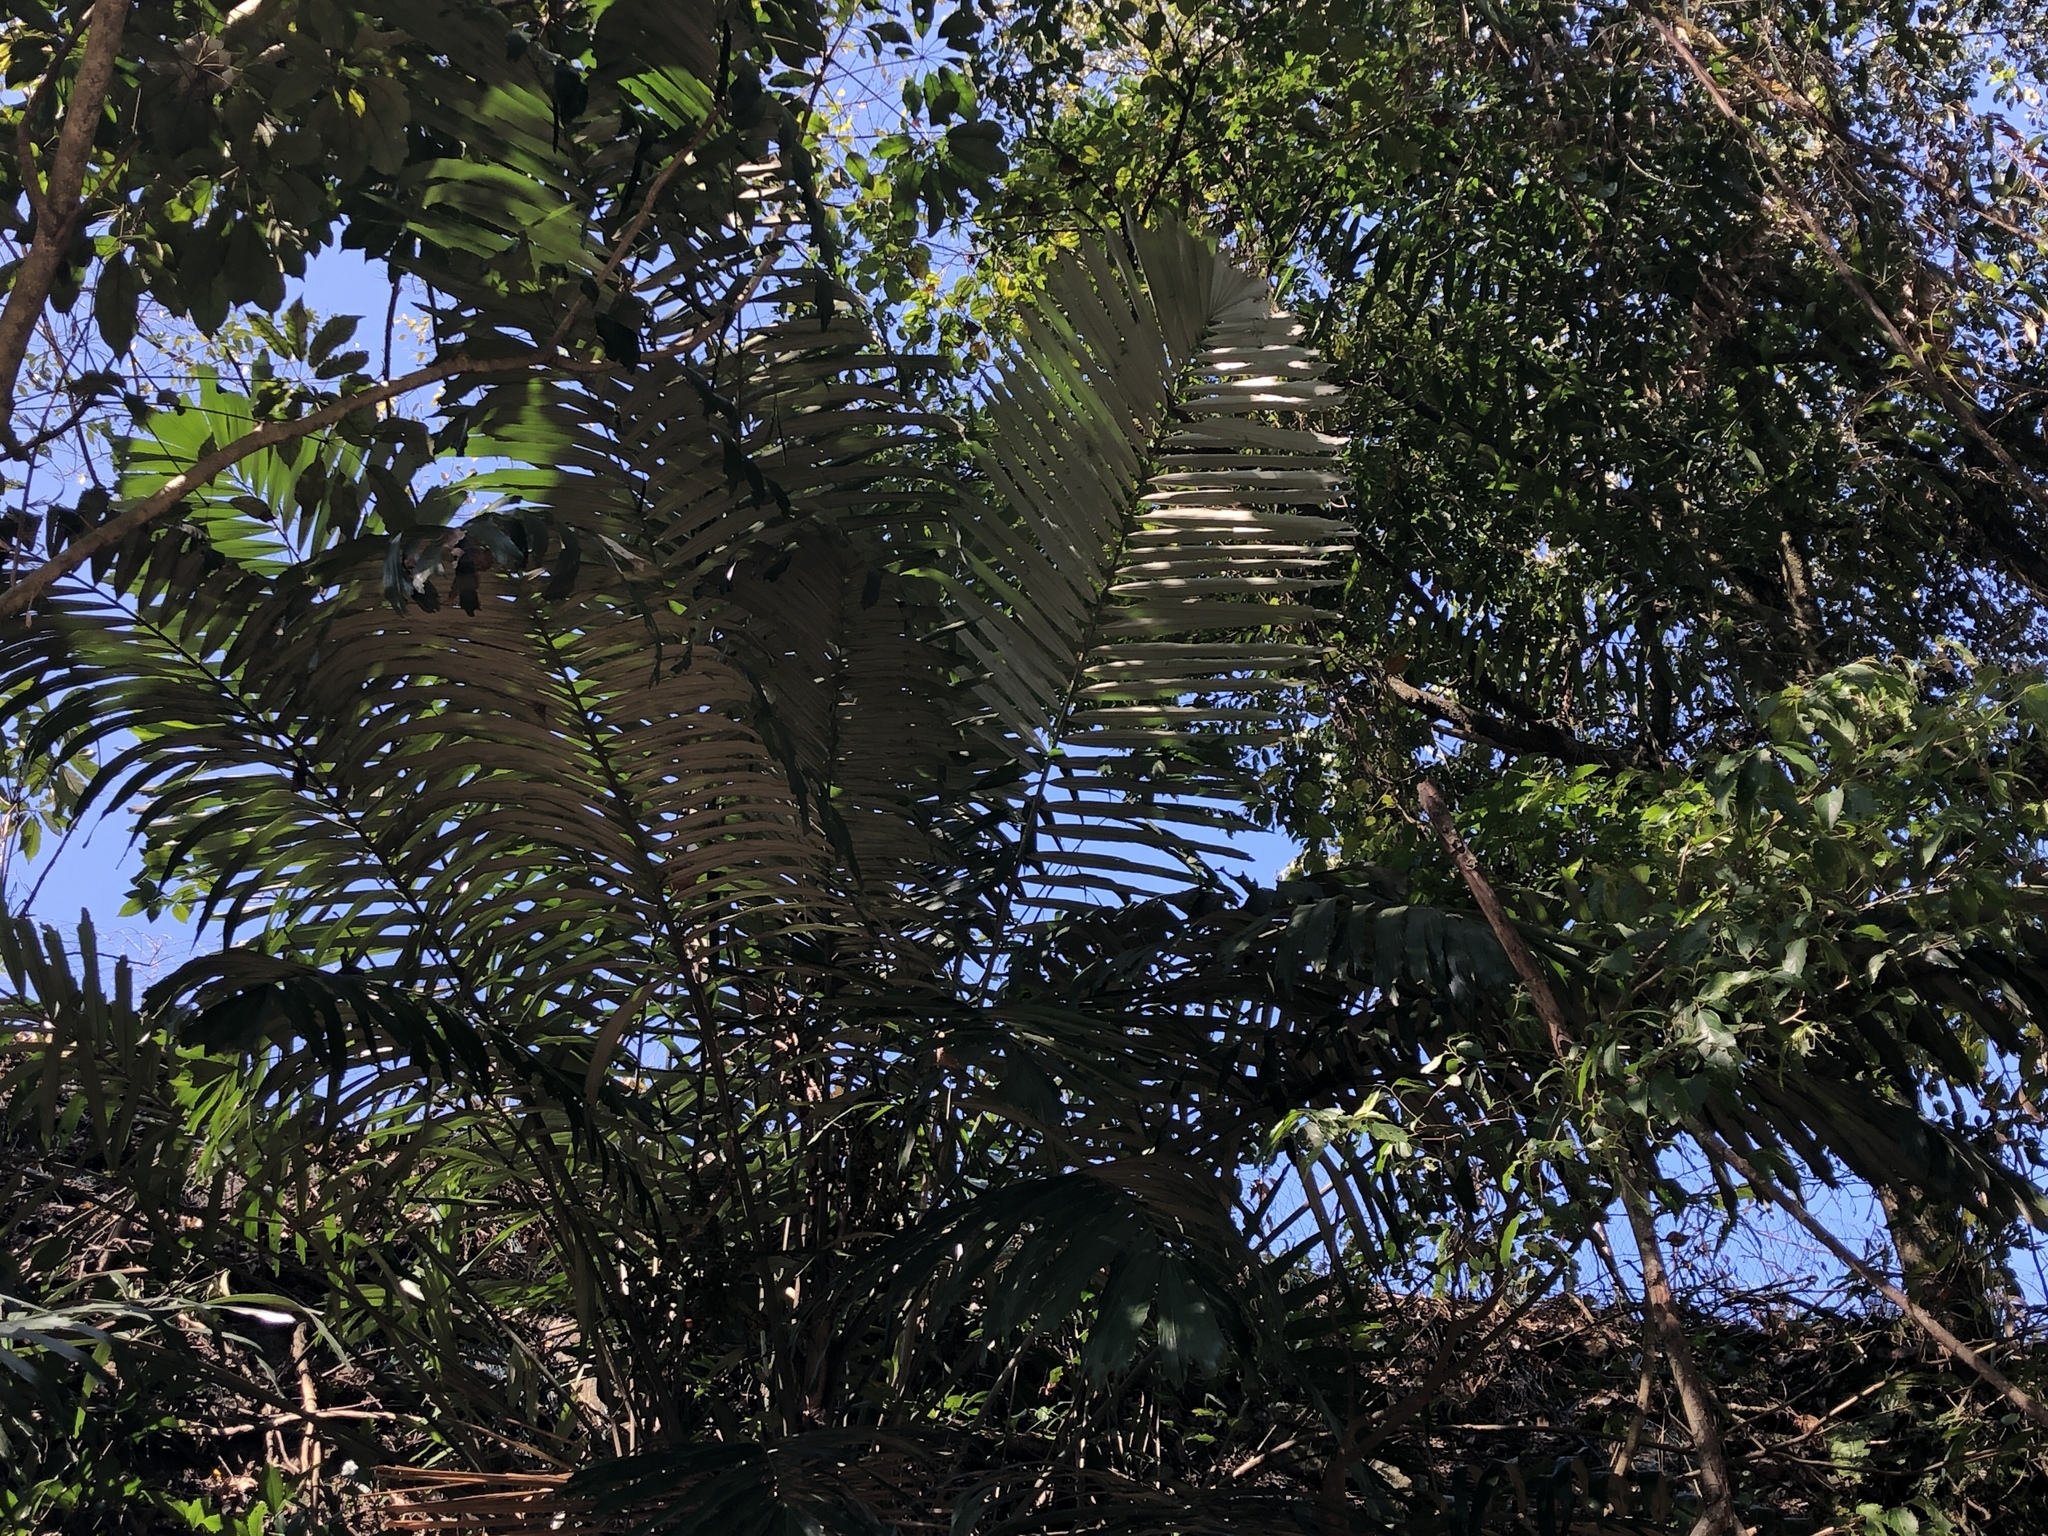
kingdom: Plantae
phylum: Tracheophyta
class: Liliopsida
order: Arecales
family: Arecaceae
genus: Arenga
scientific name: Arenga engleri
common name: Formosan sugar palm
